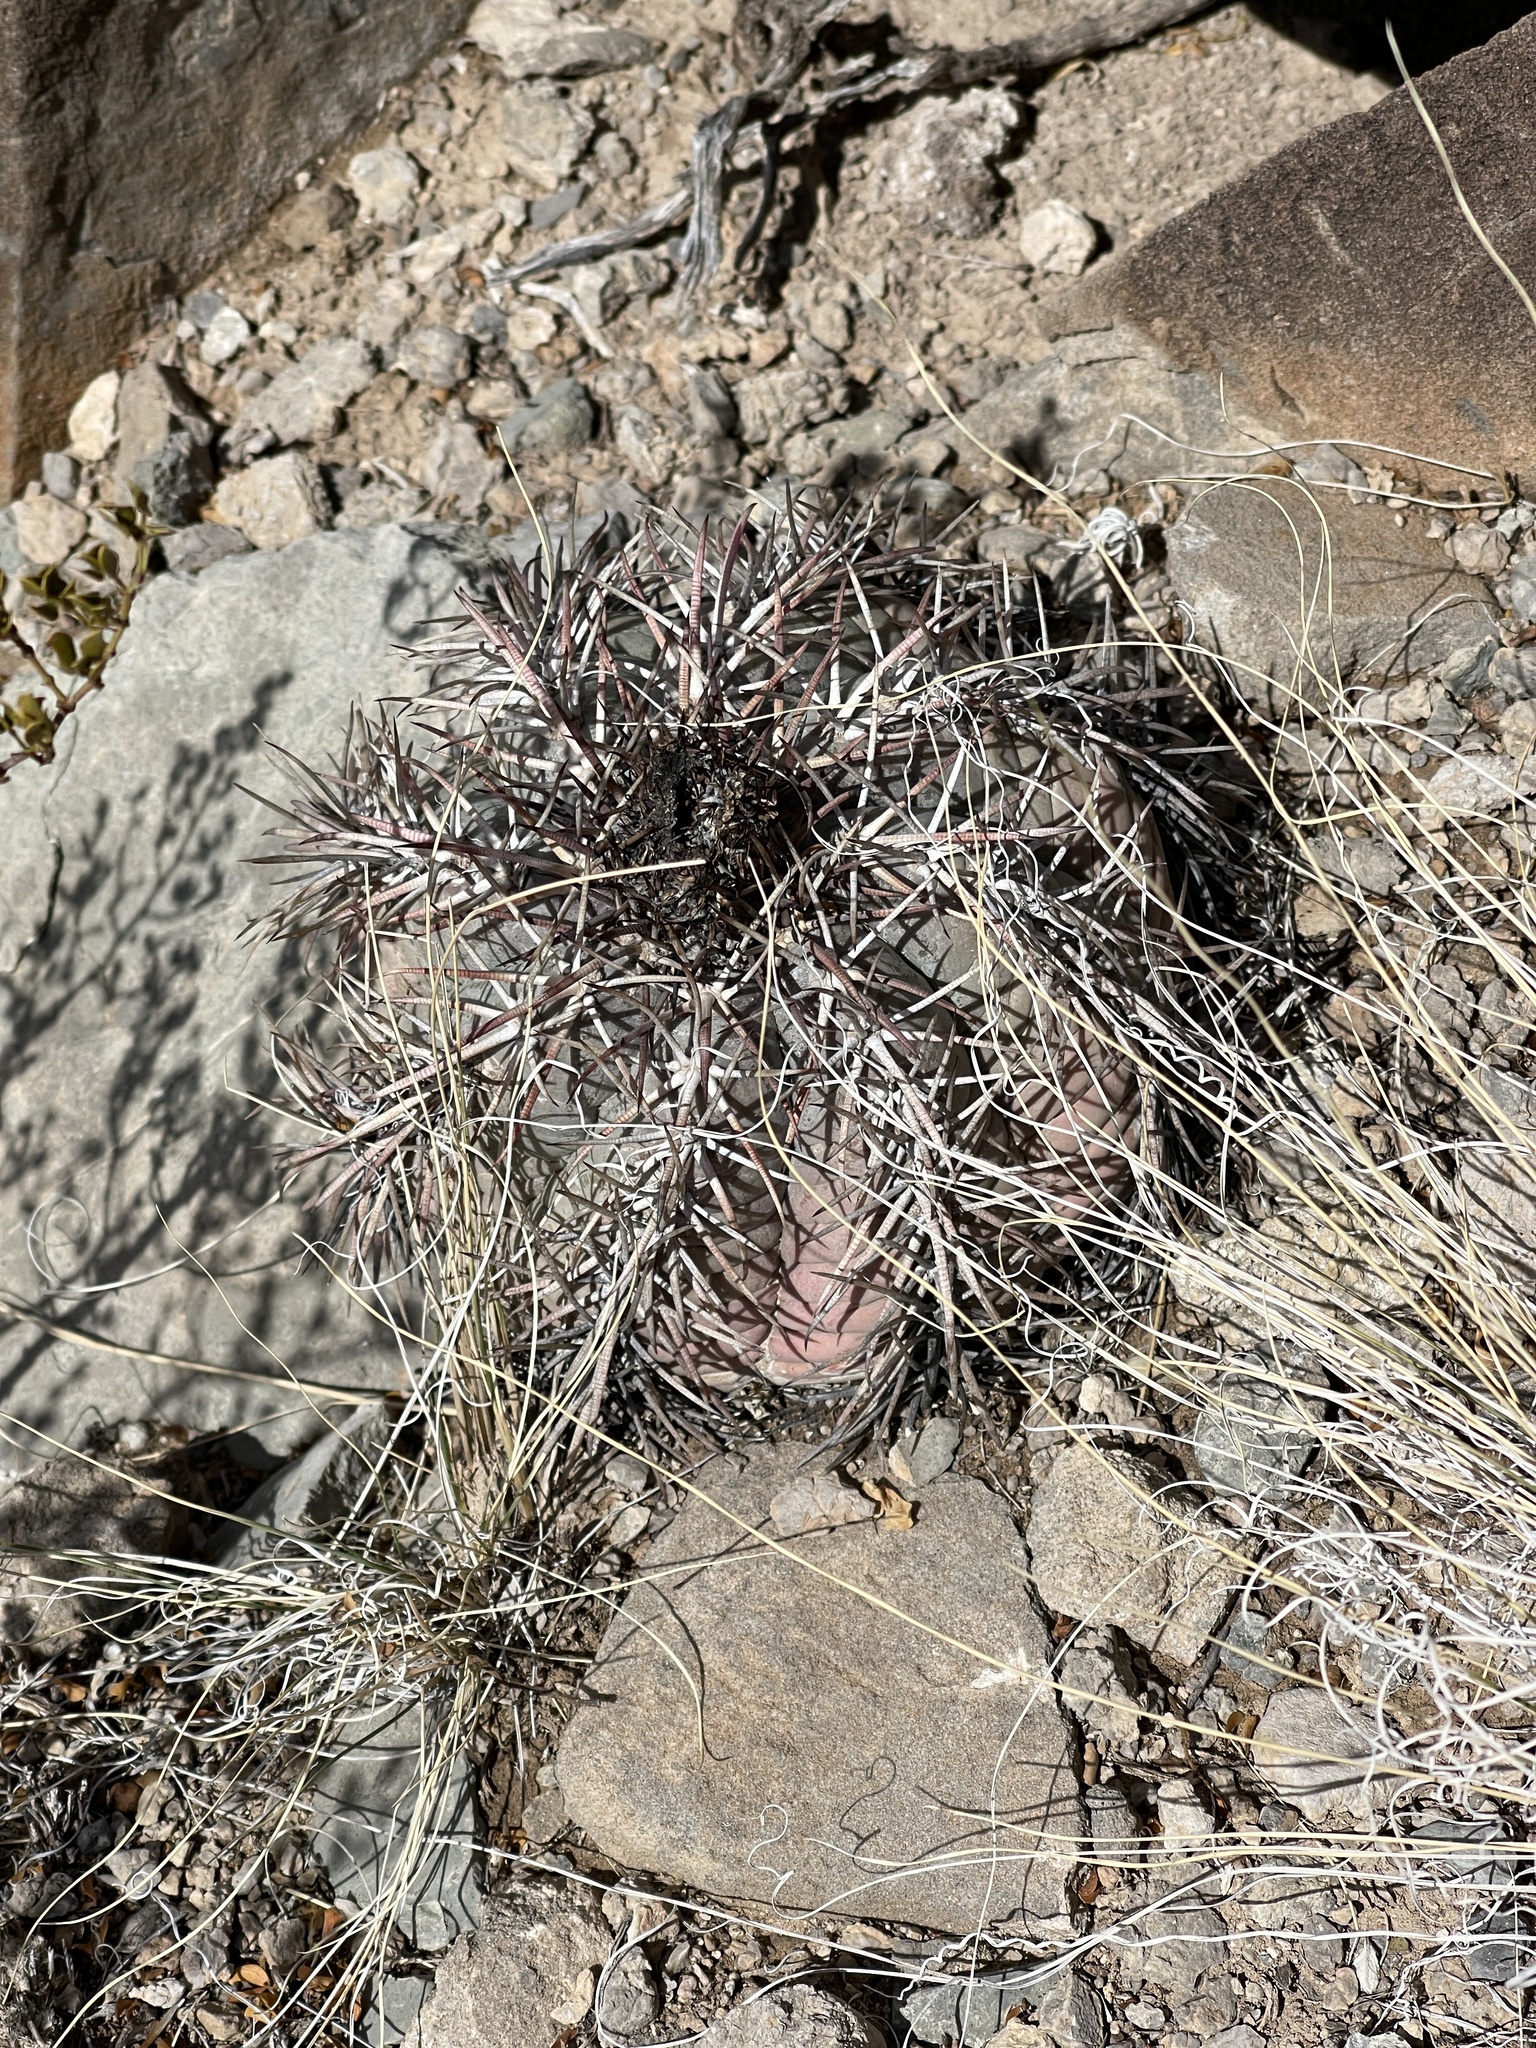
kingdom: Plantae
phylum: Tracheophyta
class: Magnoliopsida
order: Caryophyllales
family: Cactaceae
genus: Echinocactus
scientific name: Echinocactus horizonthalonius
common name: Devilshead
